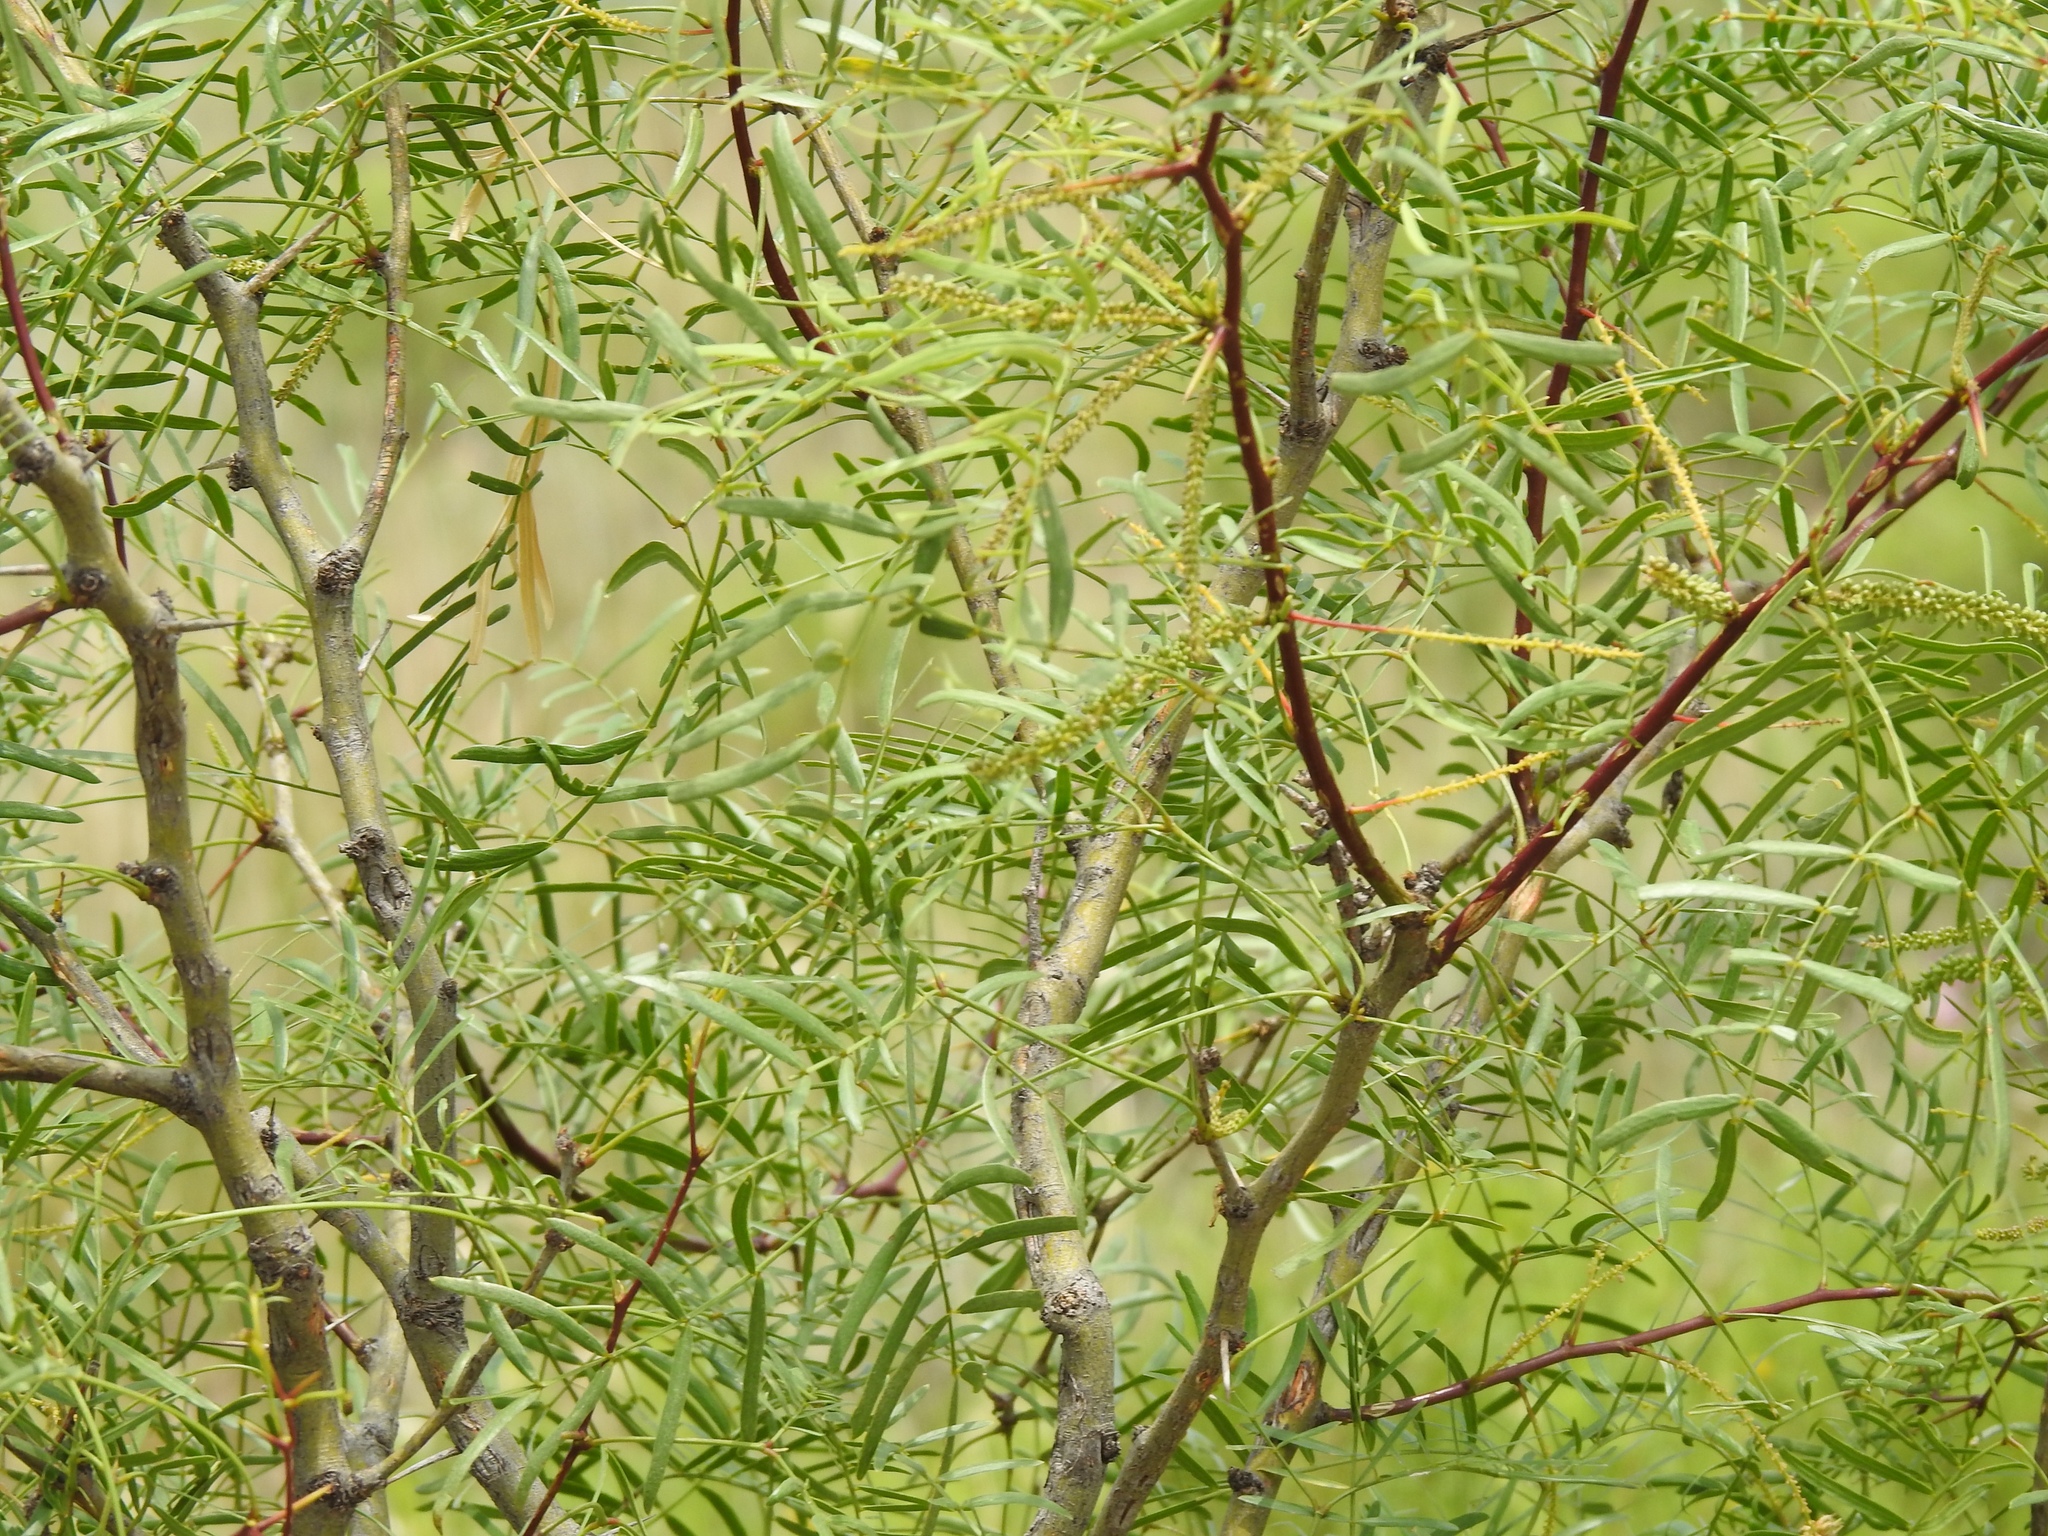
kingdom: Plantae
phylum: Tracheophyta
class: Magnoliopsida
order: Fabales
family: Fabaceae
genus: Prosopis
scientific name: Prosopis glandulosa
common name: Honey mesquite
